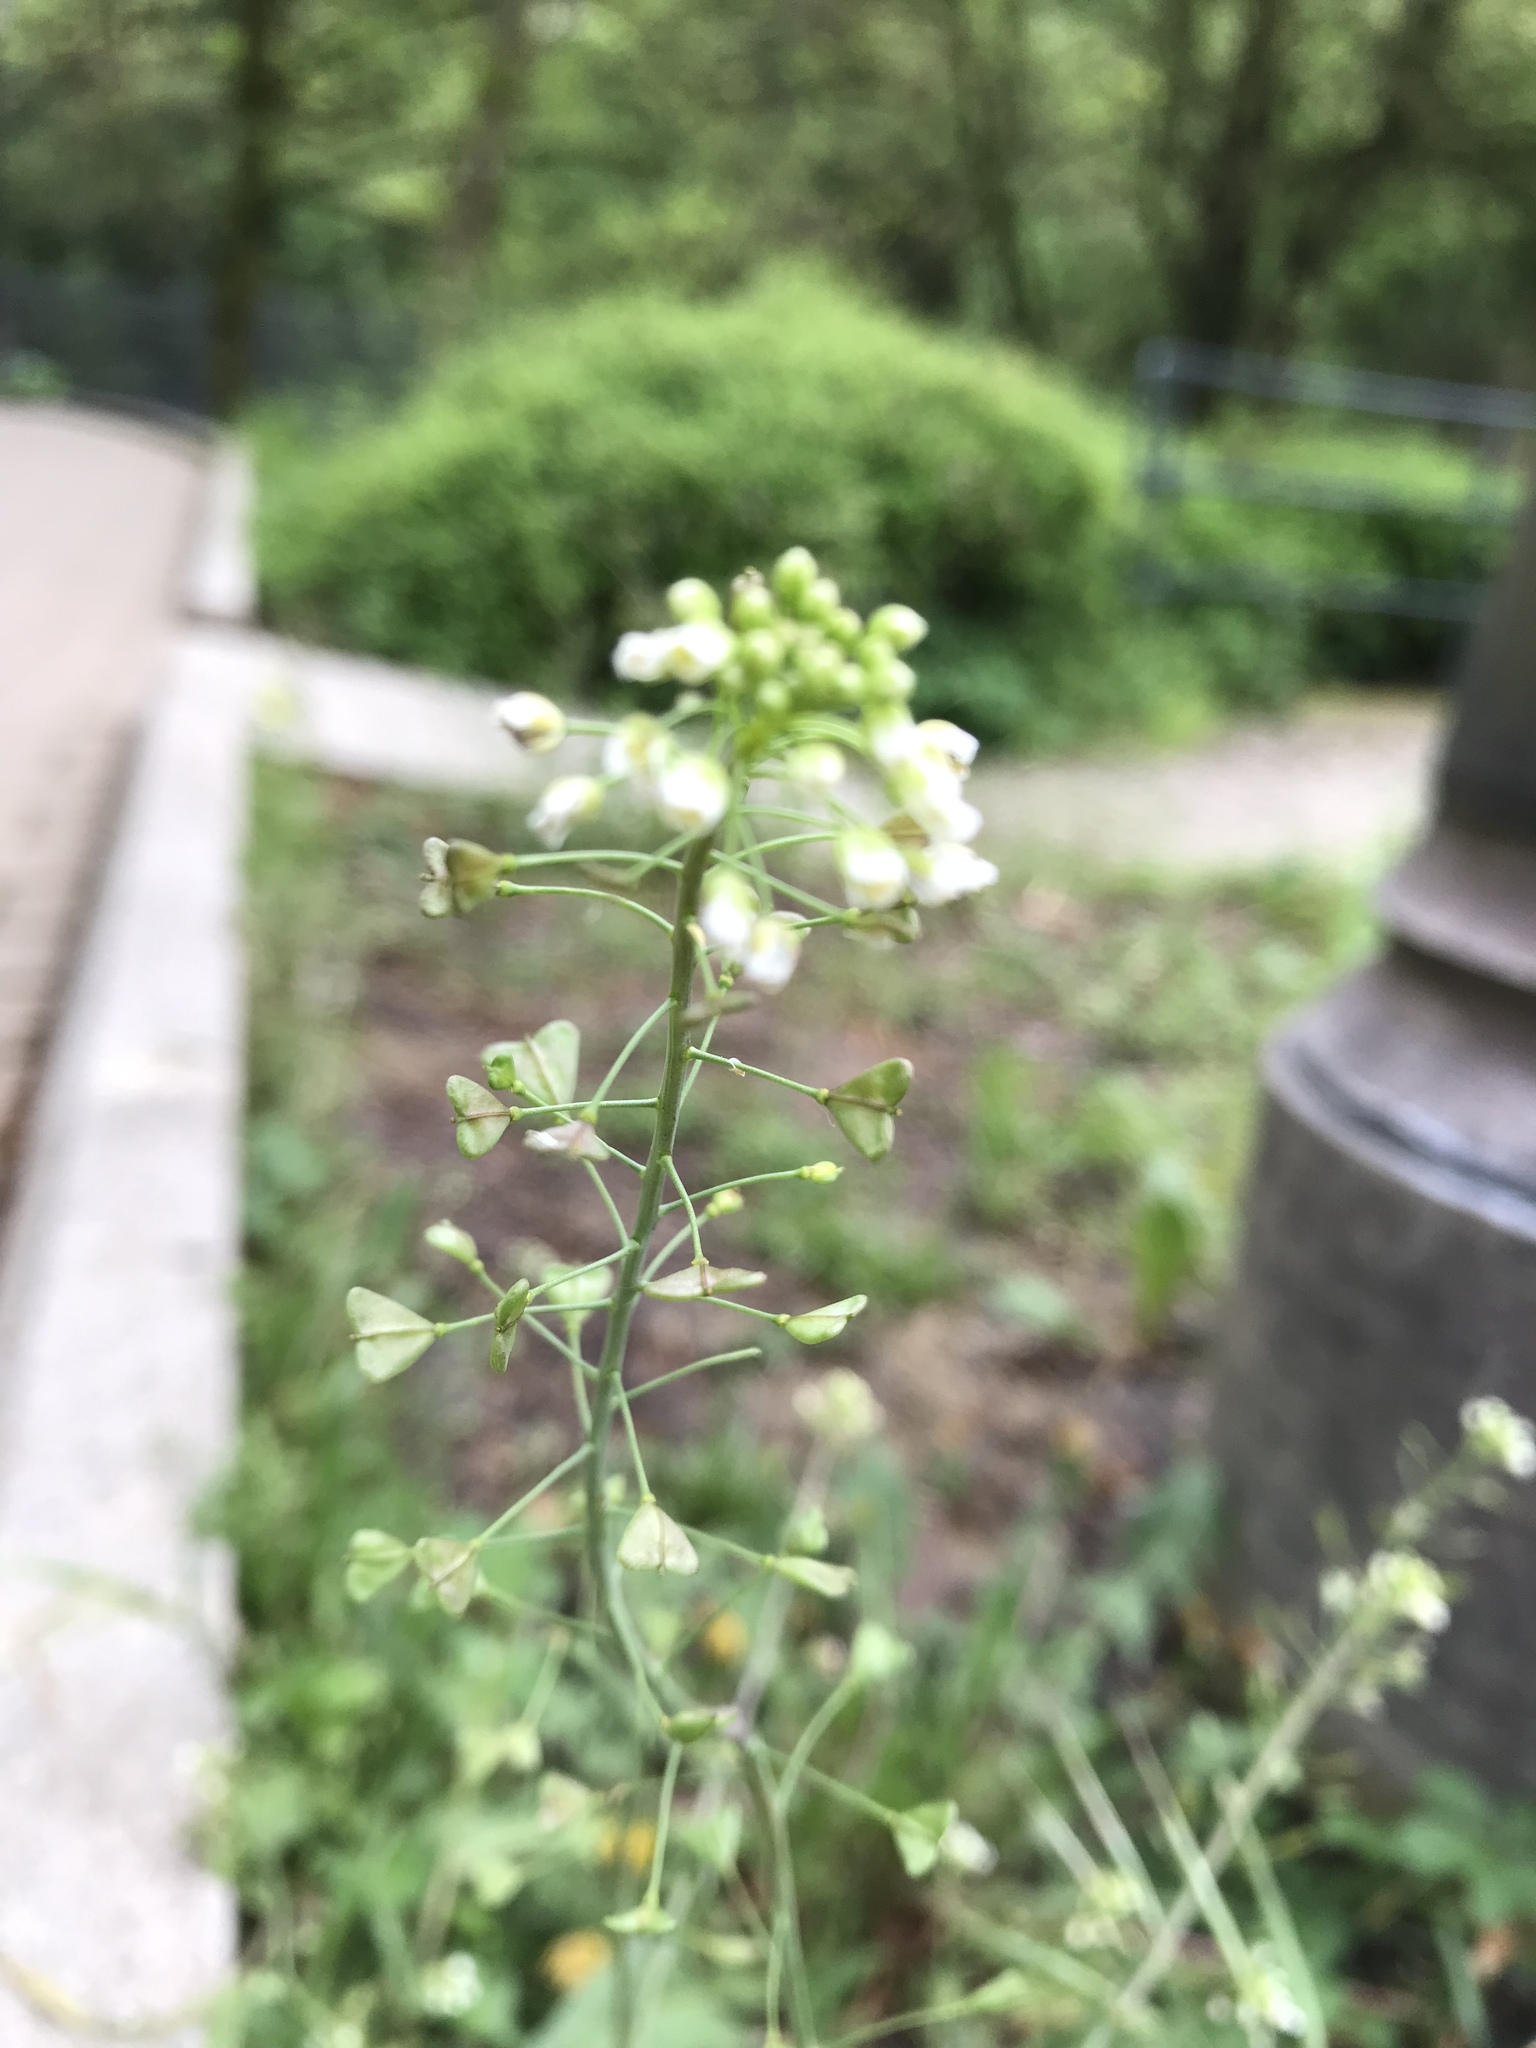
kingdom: Plantae
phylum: Tracheophyta
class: Magnoliopsida
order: Brassicales
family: Brassicaceae
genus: Capsella
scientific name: Capsella bursa-pastoris
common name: Shepherd's purse
